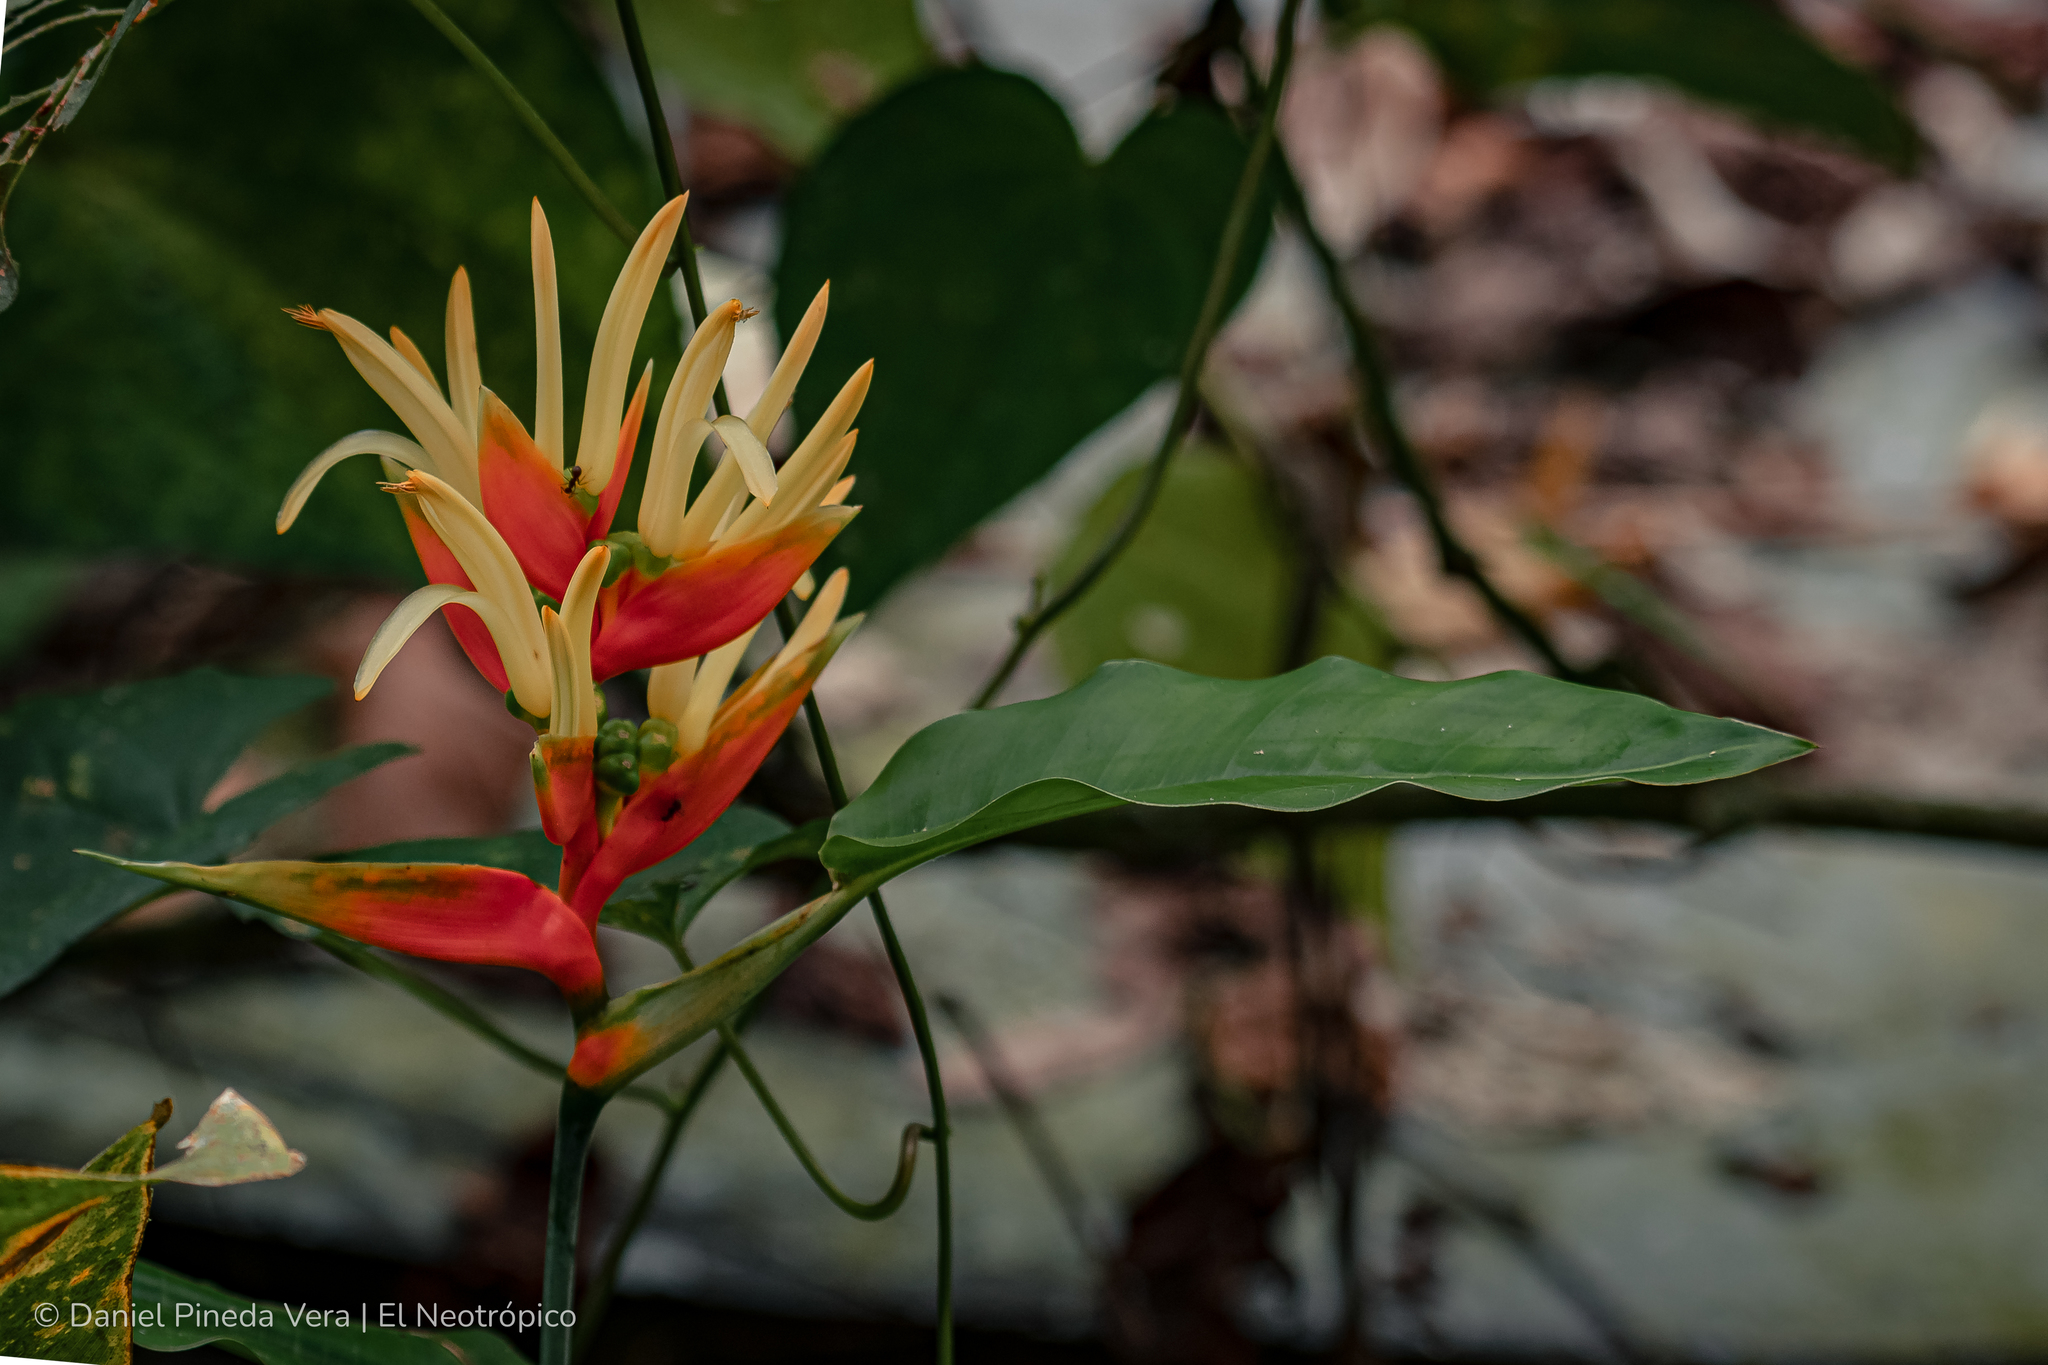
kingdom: Plantae
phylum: Tracheophyta
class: Liliopsida
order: Zingiberales
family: Heliconiaceae
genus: Heliconia
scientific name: Heliconia aurantiaca
